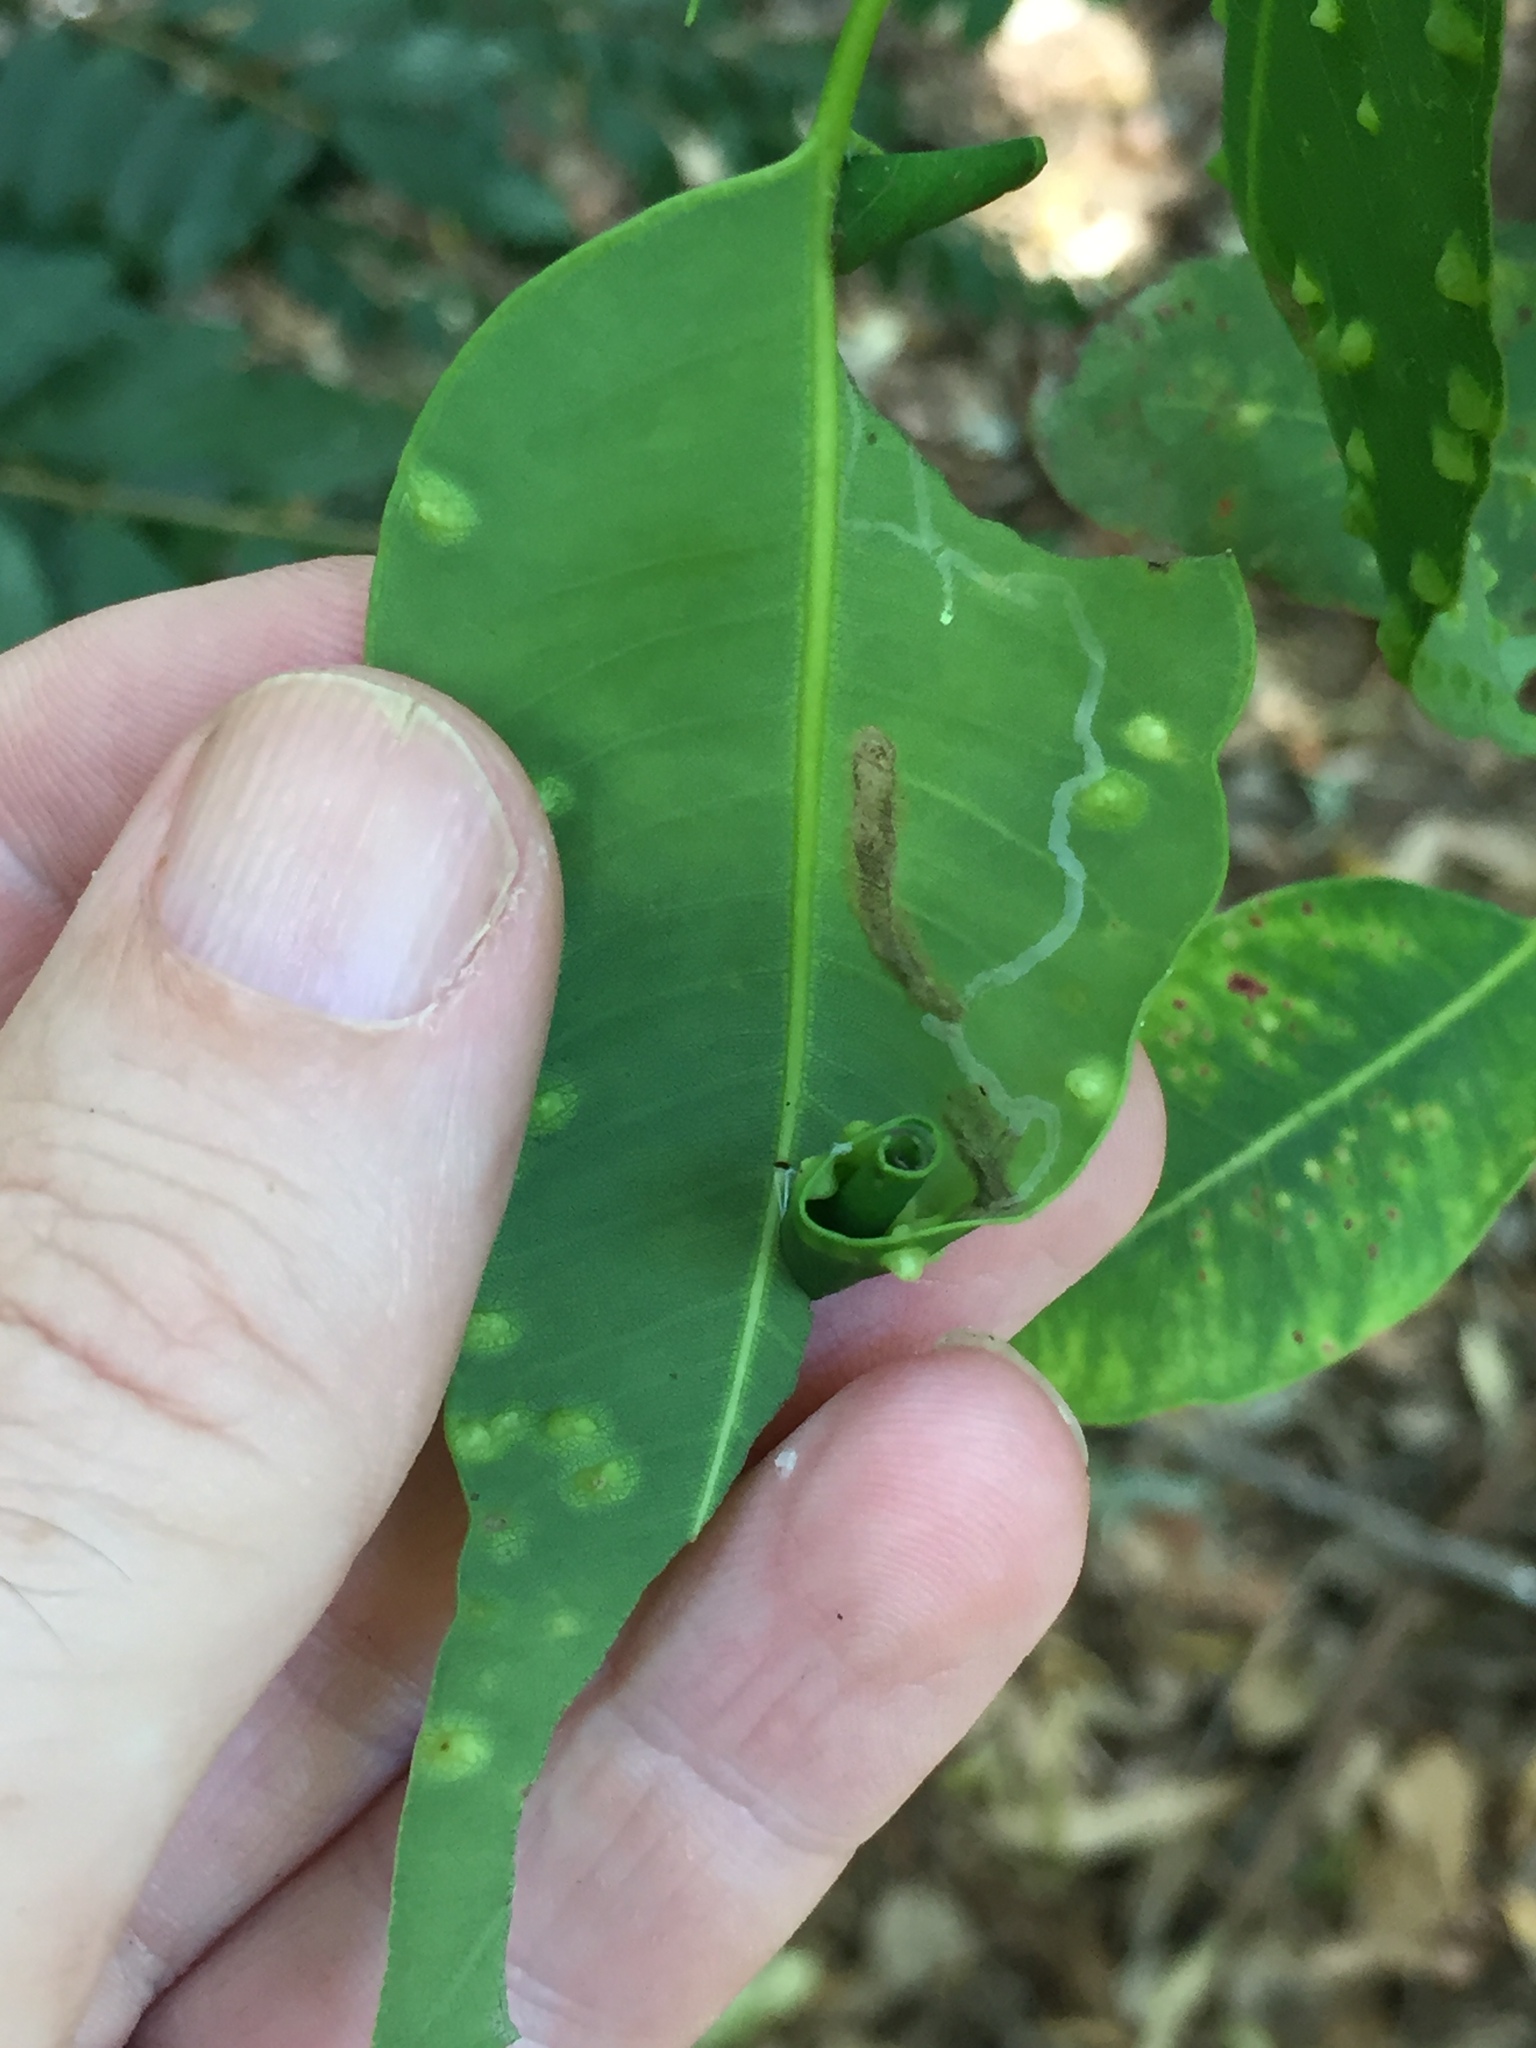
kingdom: Animalia
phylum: Arthropoda
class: Insecta
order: Lepidoptera
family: Gracillariidae
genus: Macarostola
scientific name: Macarostola ida
